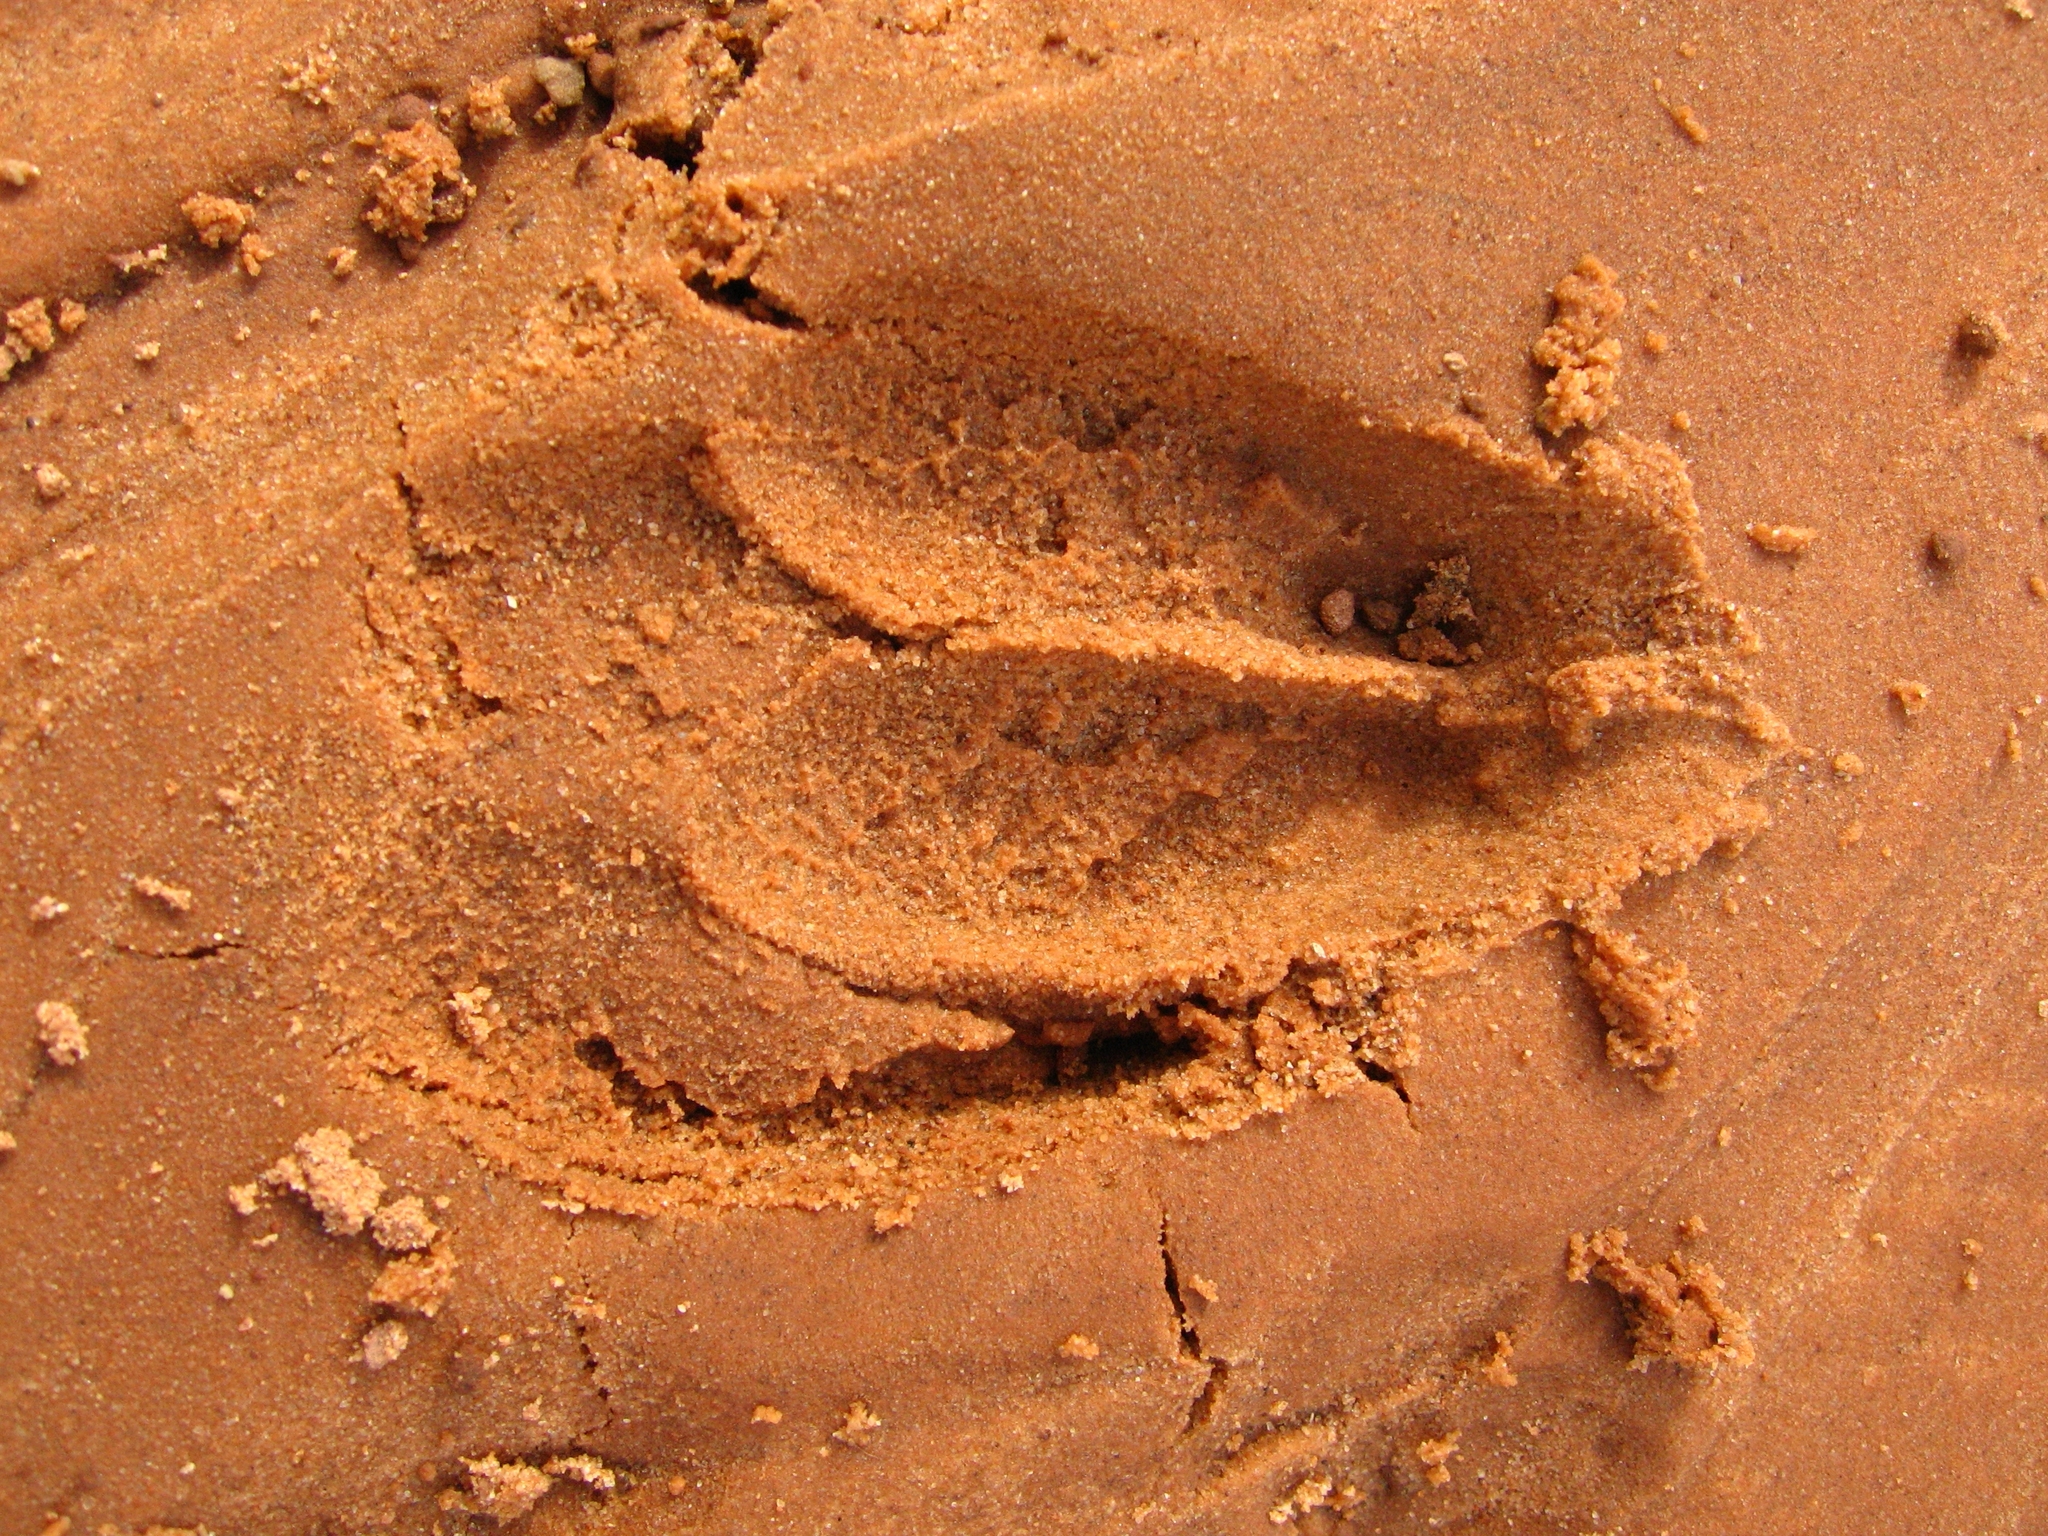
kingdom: Animalia
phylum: Chordata
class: Mammalia
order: Artiodactyla
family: Cervidae
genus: Odocoileus
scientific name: Odocoileus hemionus
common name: Mule deer
